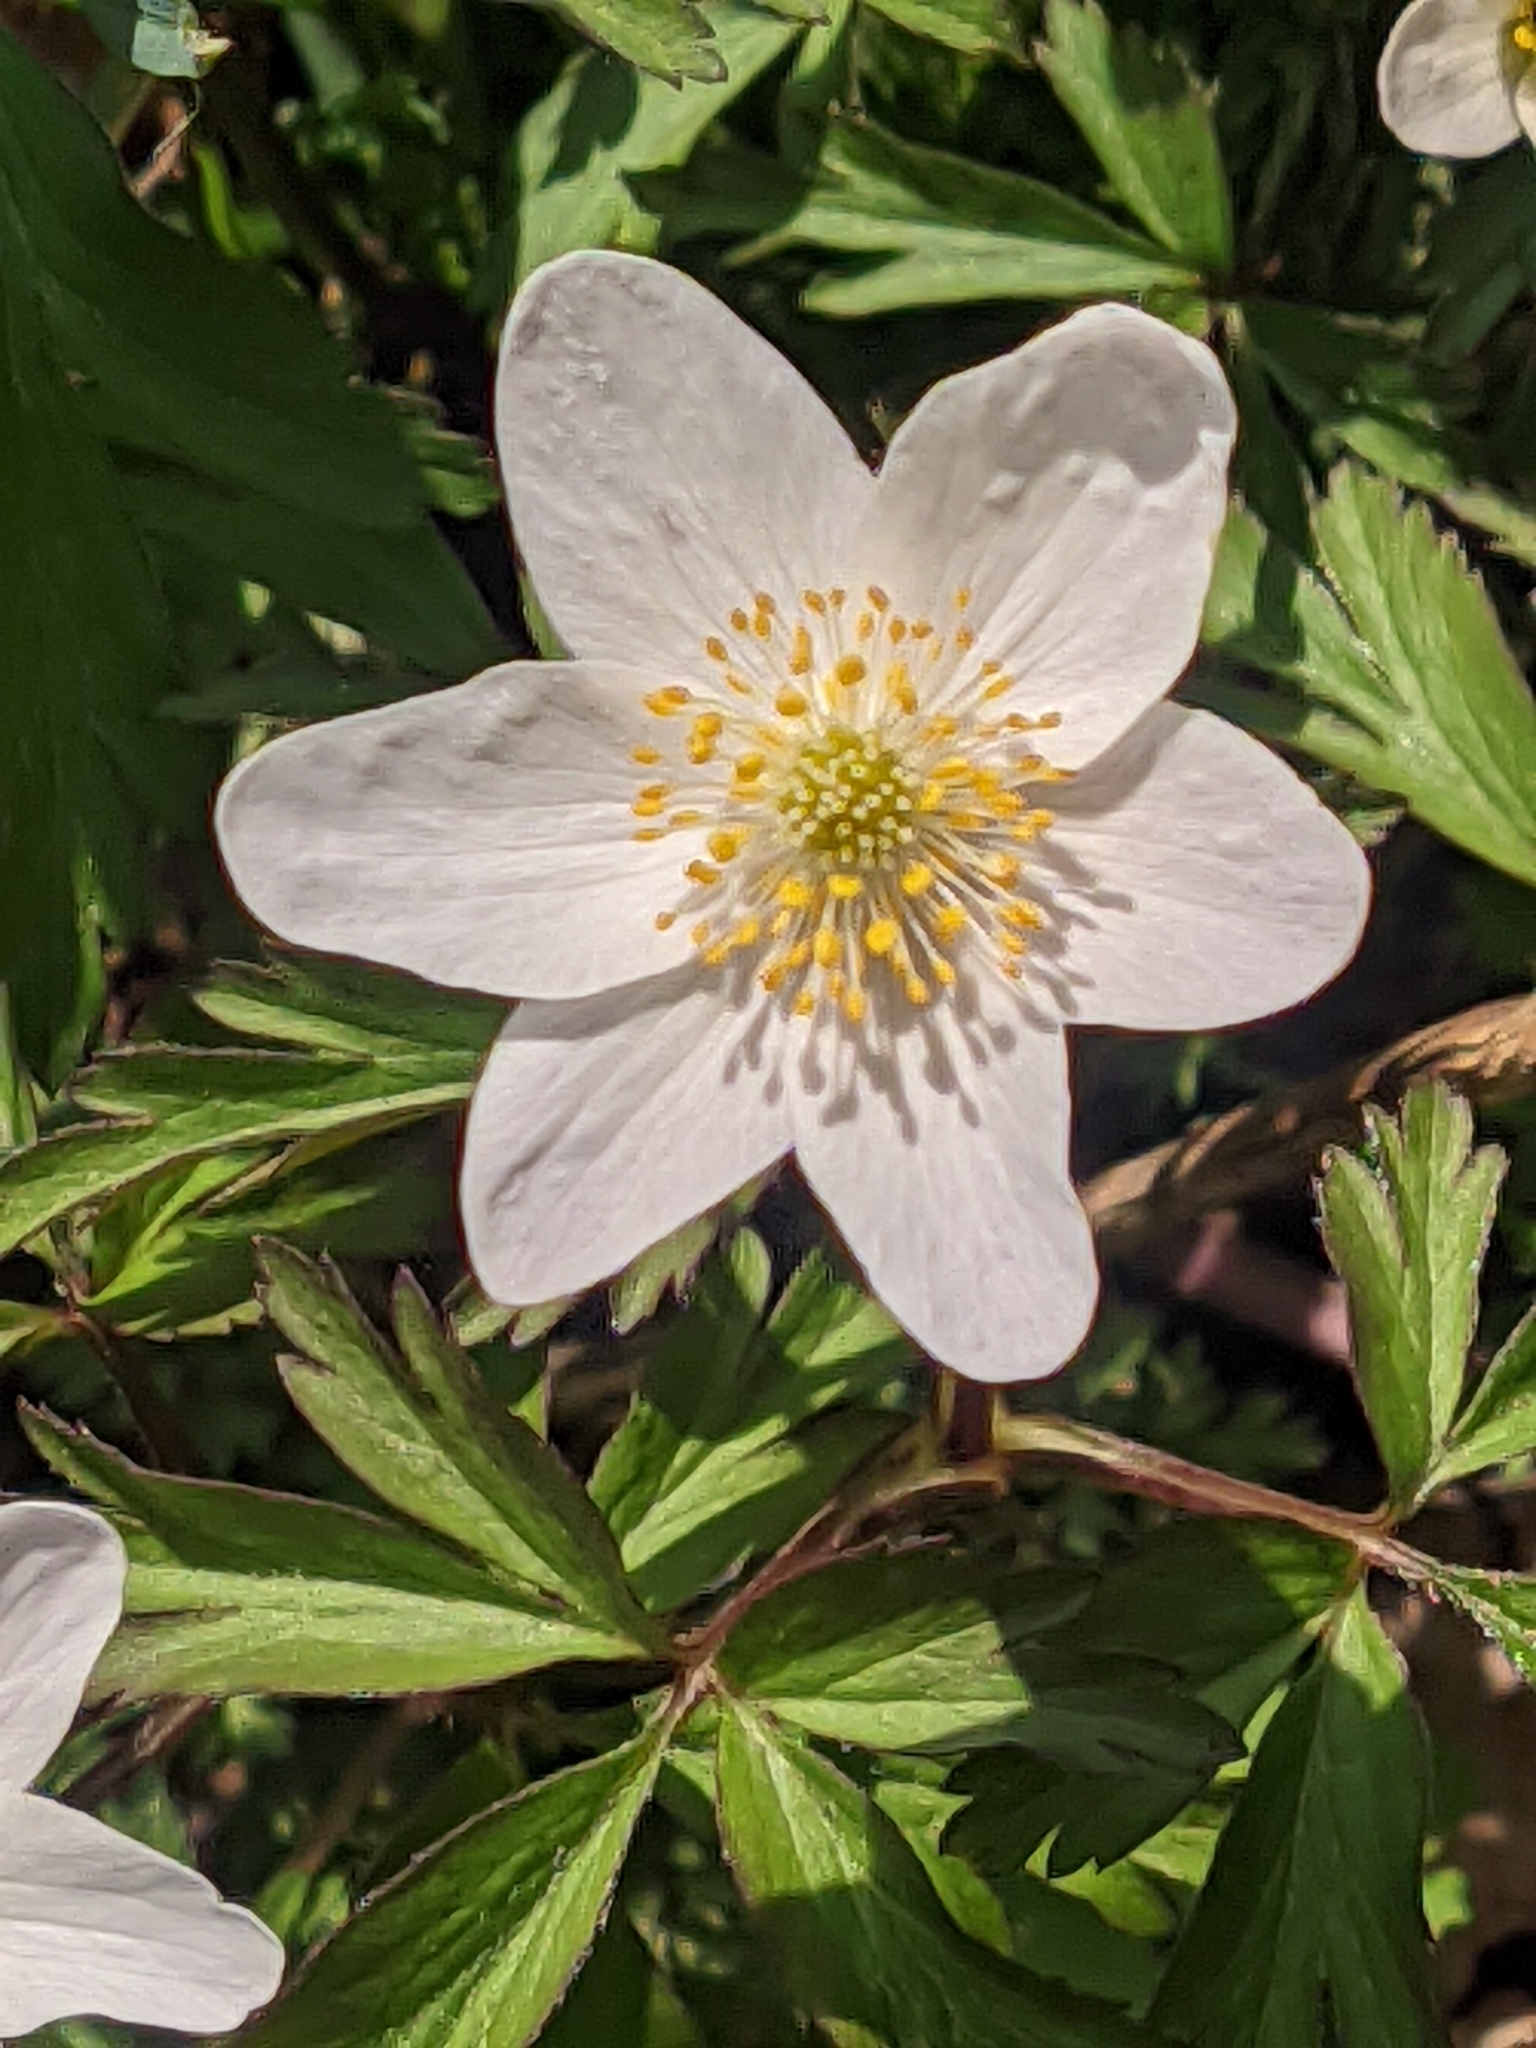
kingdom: Plantae
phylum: Tracheophyta
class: Magnoliopsida
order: Ranunculales
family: Ranunculaceae
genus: Anemone
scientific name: Anemone nemorosa
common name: Wood anemone
